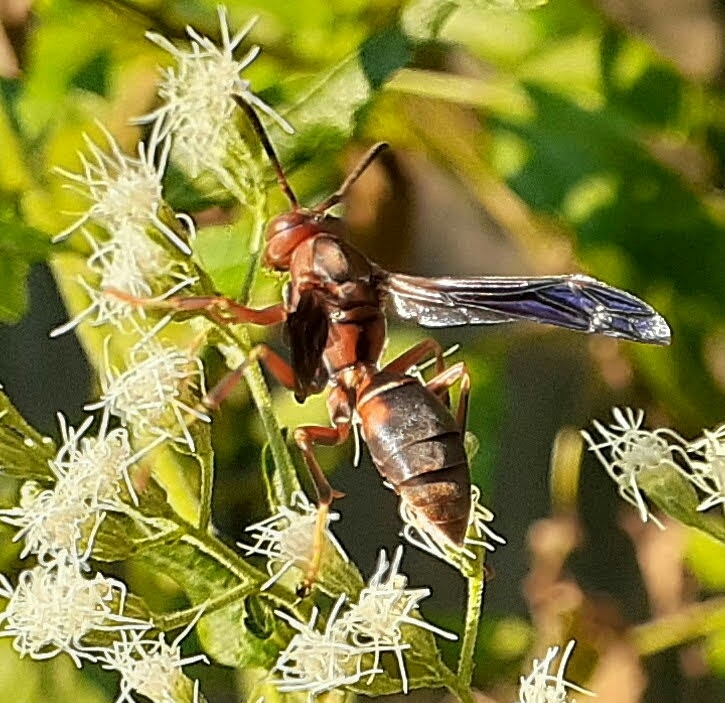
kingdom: Animalia
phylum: Arthropoda
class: Insecta
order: Hymenoptera
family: Vespidae
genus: Fuscopolistes
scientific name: Fuscopolistes
